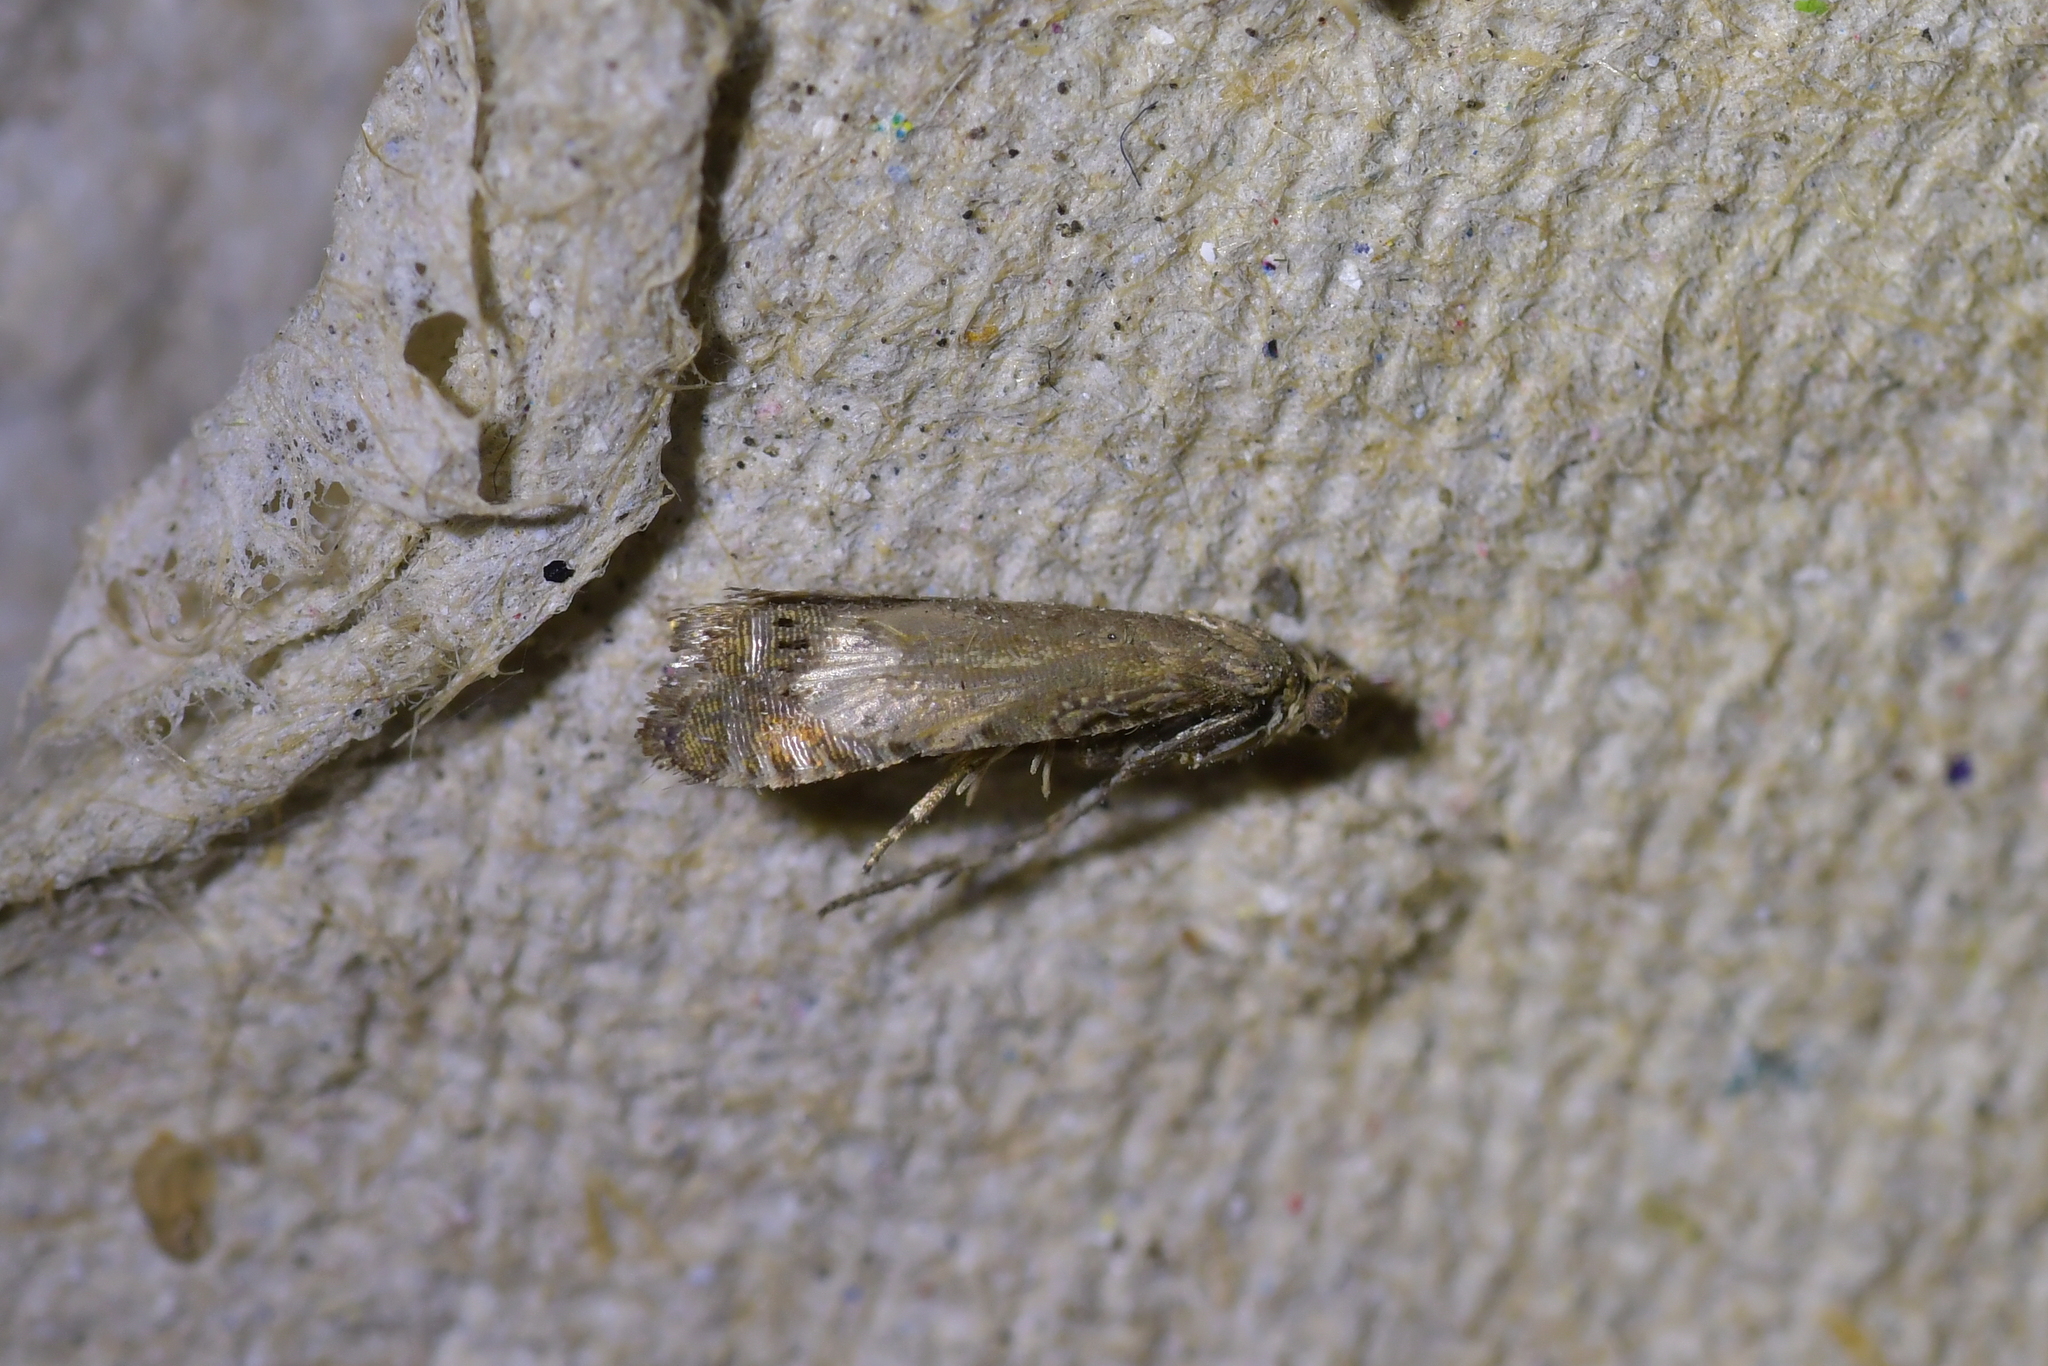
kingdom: Animalia
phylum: Arthropoda
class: Insecta
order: Lepidoptera
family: Tortricidae
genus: Cydia
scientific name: Cydia succedana
